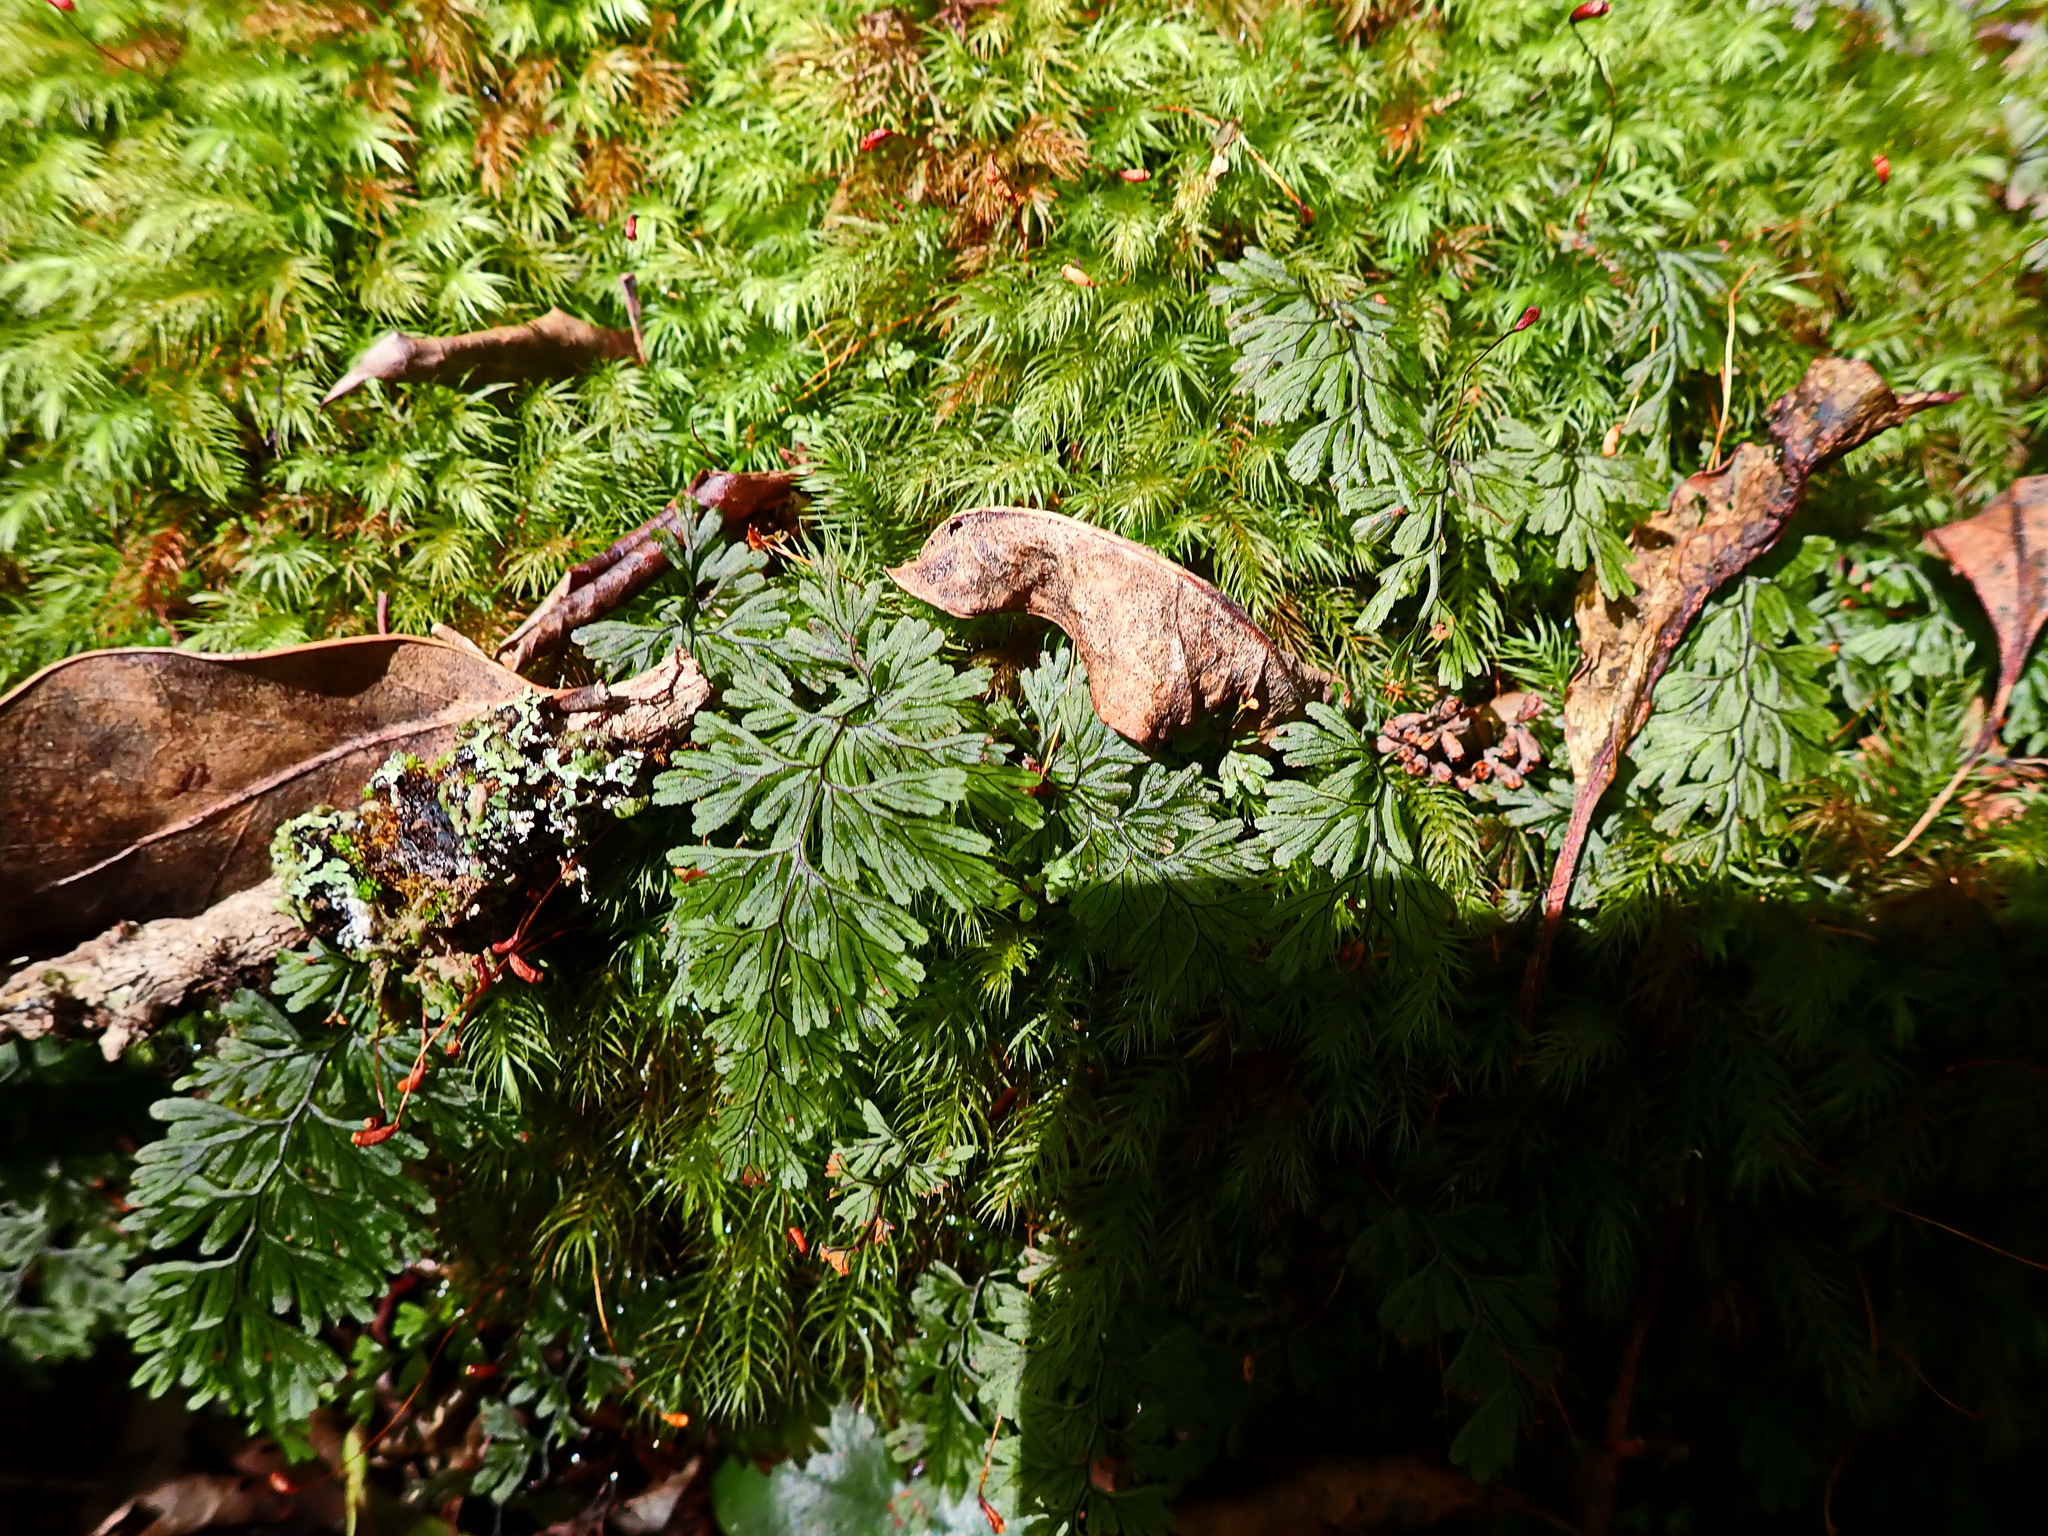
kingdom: Plantae
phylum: Tracheophyta
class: Polypodiopsida
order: Hymenophyllales
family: Hymenophyllaceae
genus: Hymenophyllum
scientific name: Hymenophyllum tunbrigense
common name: Tunbridge filmy fern
